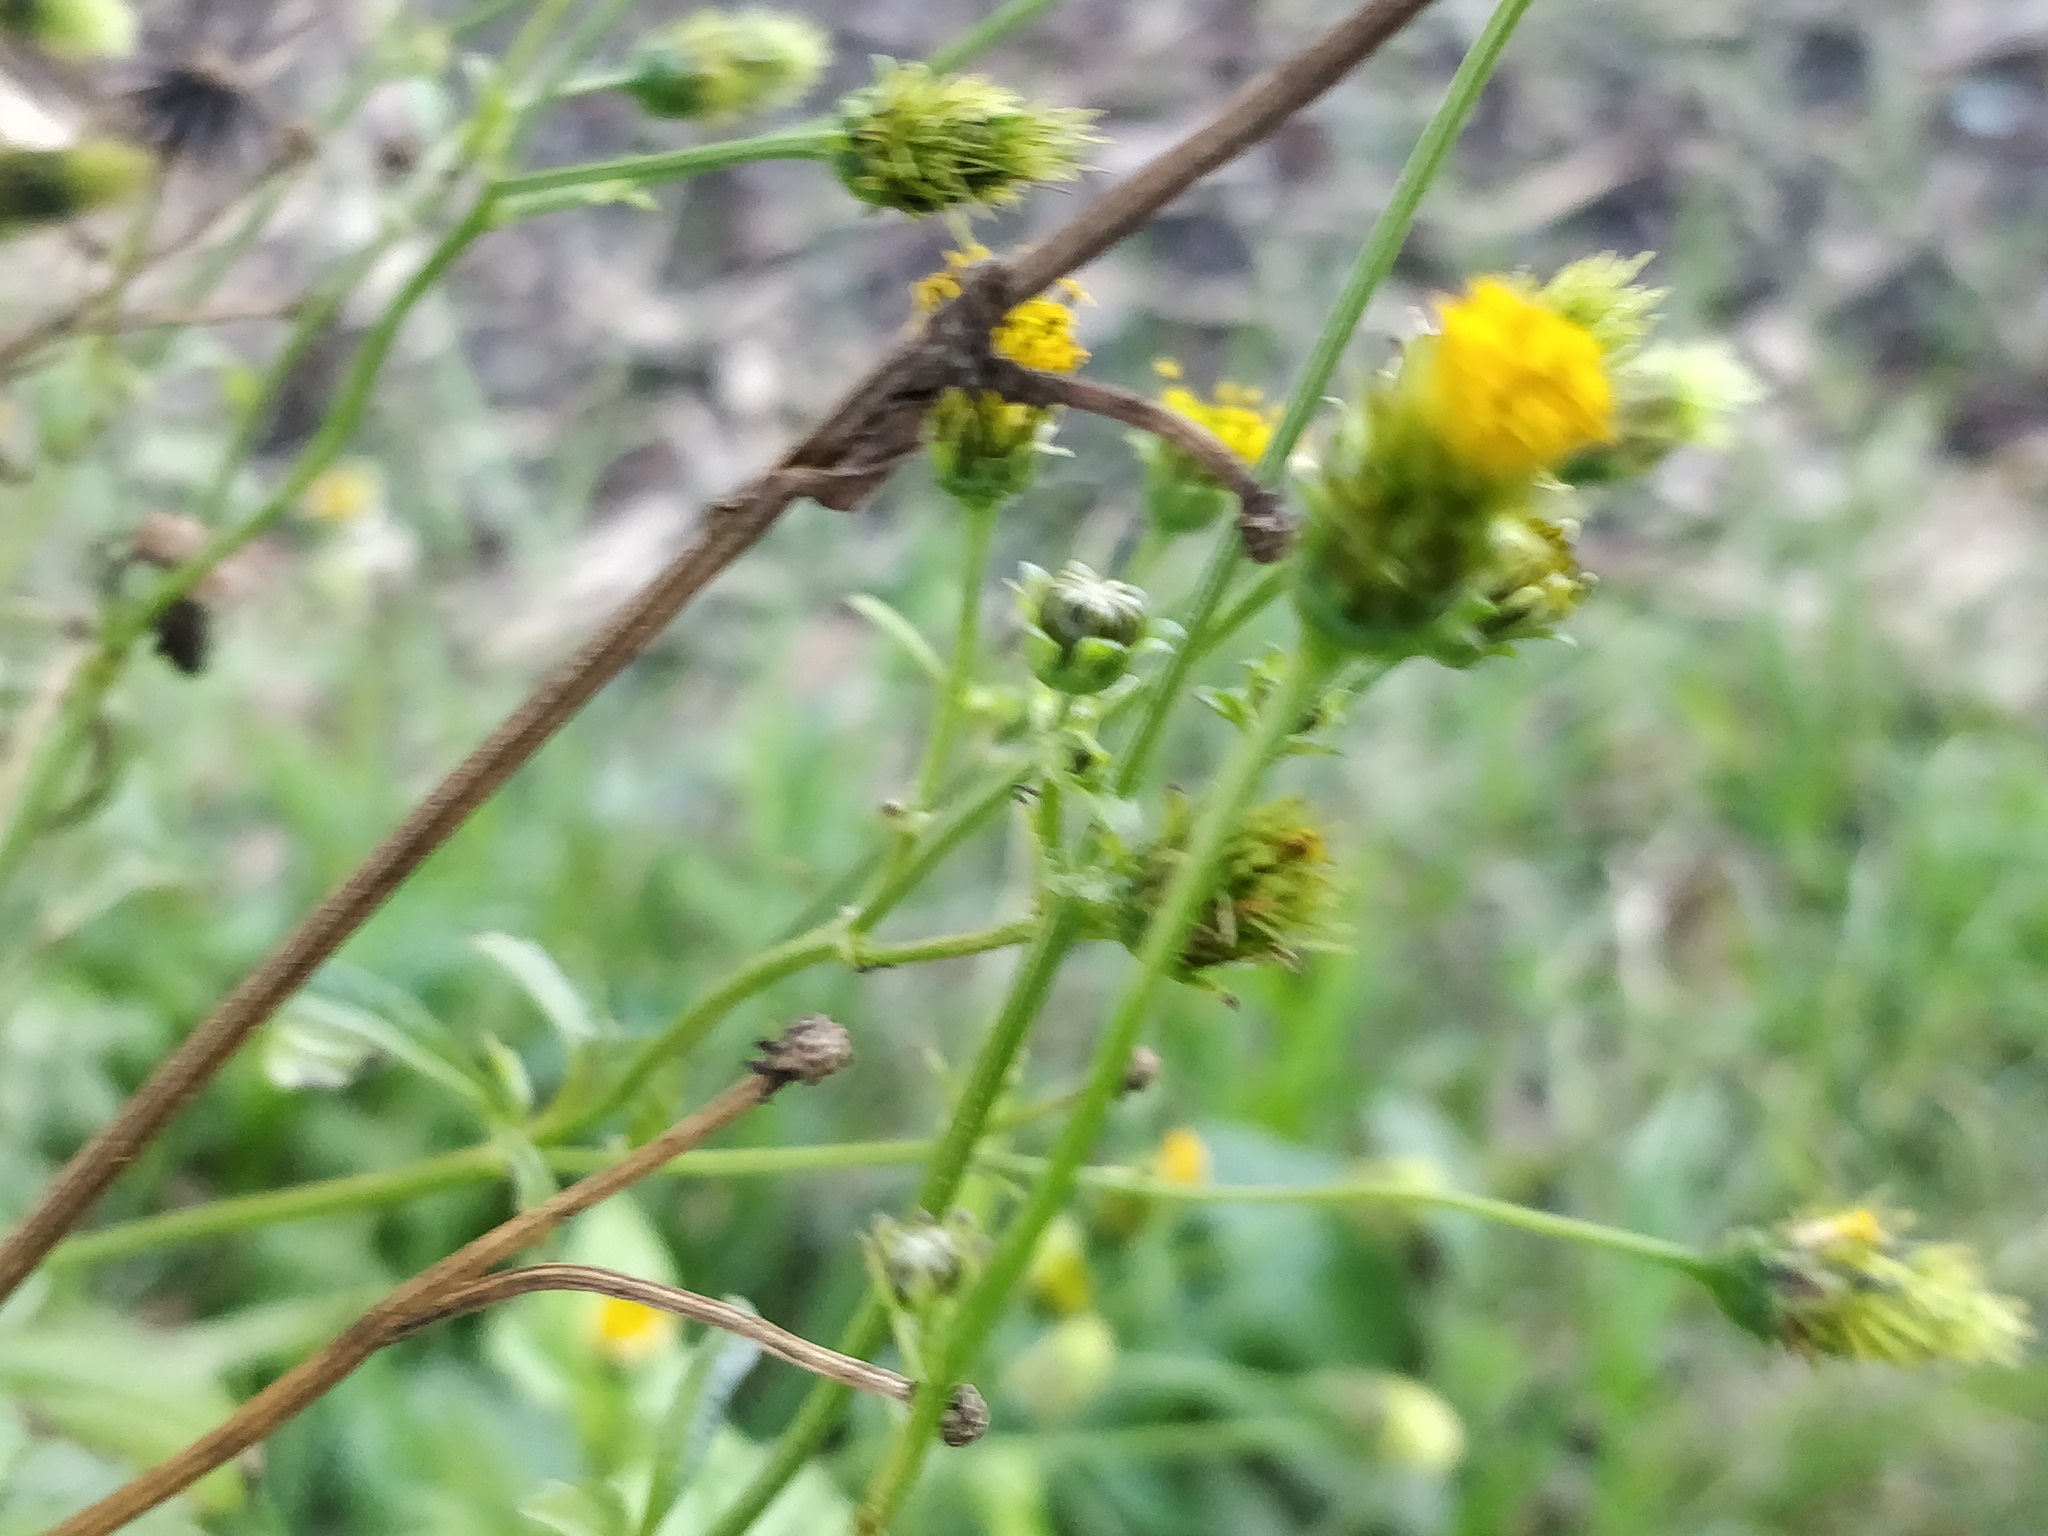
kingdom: Plantae
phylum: Tracheophyta
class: Magnoliopsida
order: Asterales
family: Asteraceae
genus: Bidens
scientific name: Bidens pilosa
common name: Black-jack
